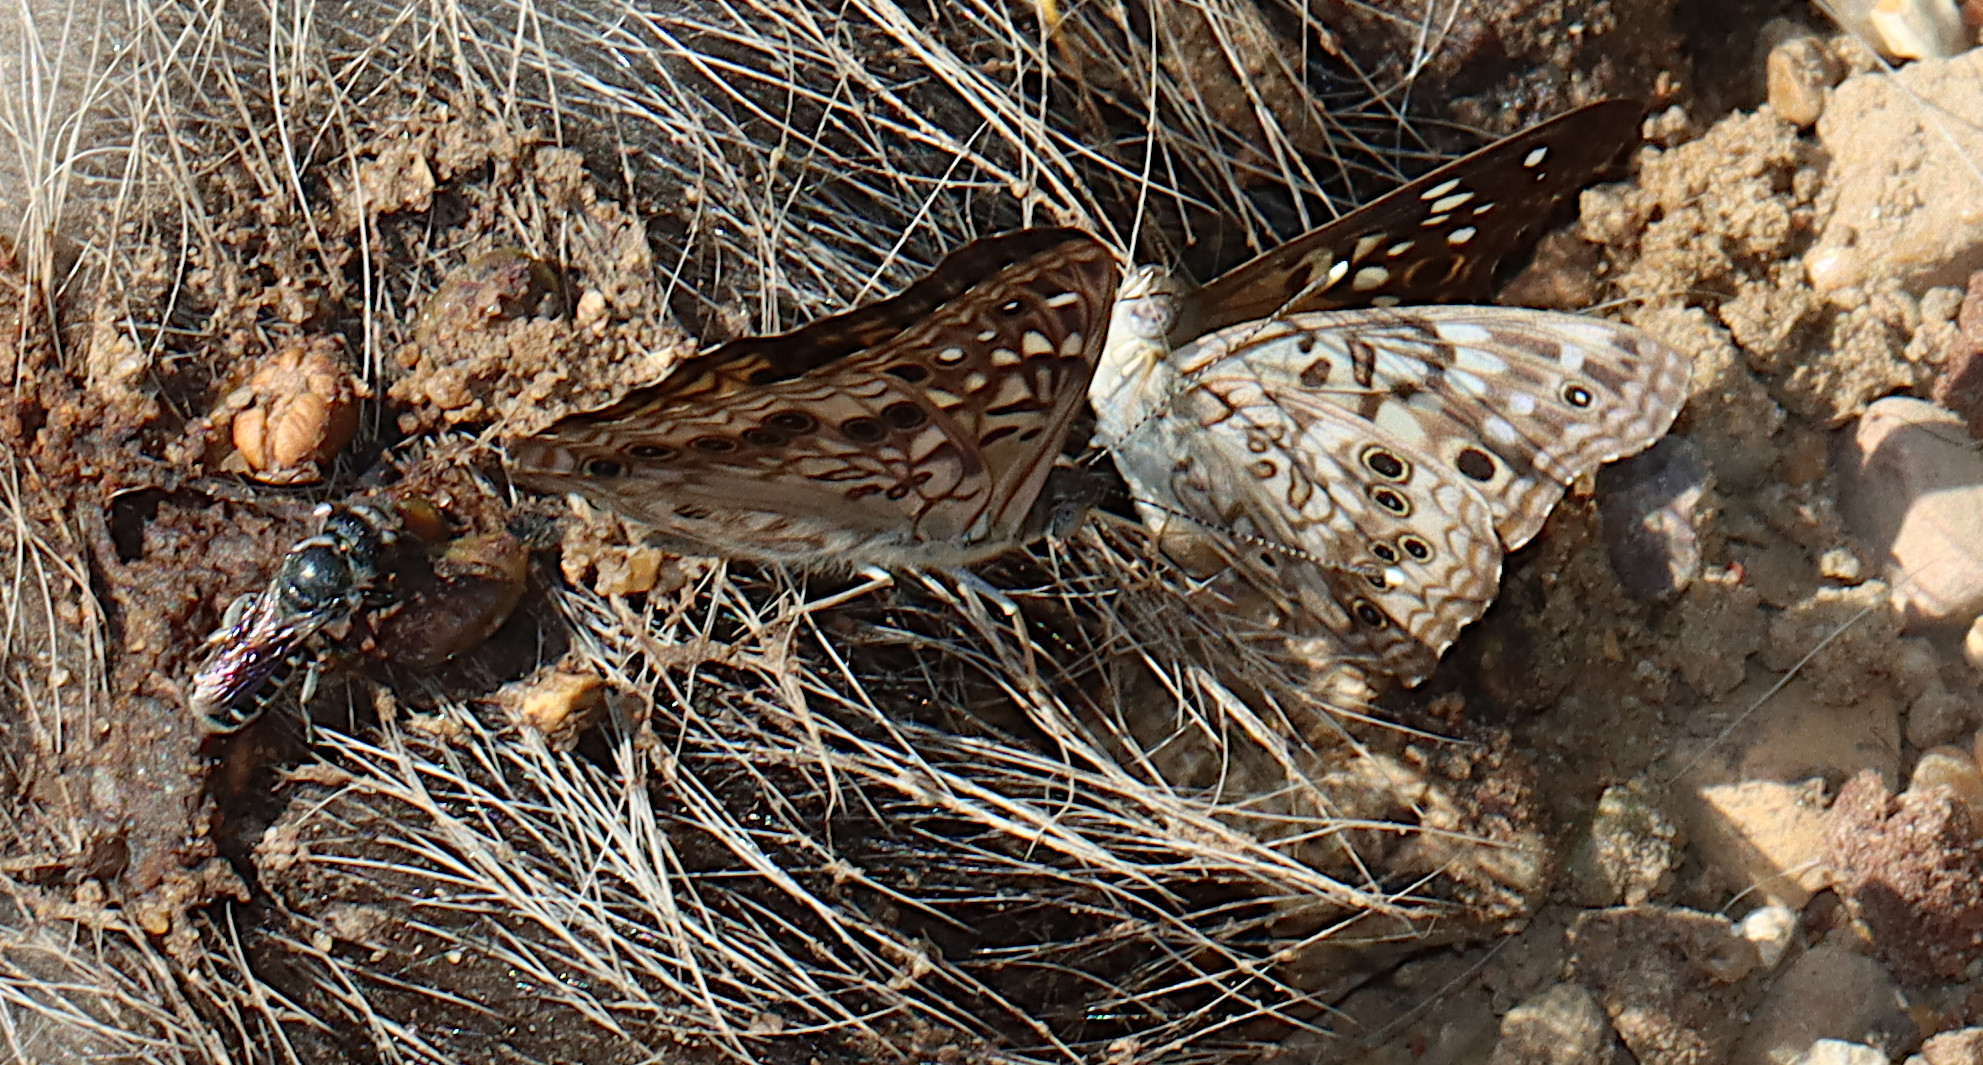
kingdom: Animalia
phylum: Arthropoda
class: Insecta
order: Lepidoptera
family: Nymphalidae
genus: Asterocampa
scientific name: Asterocampa celtis
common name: Hackberry emperor
